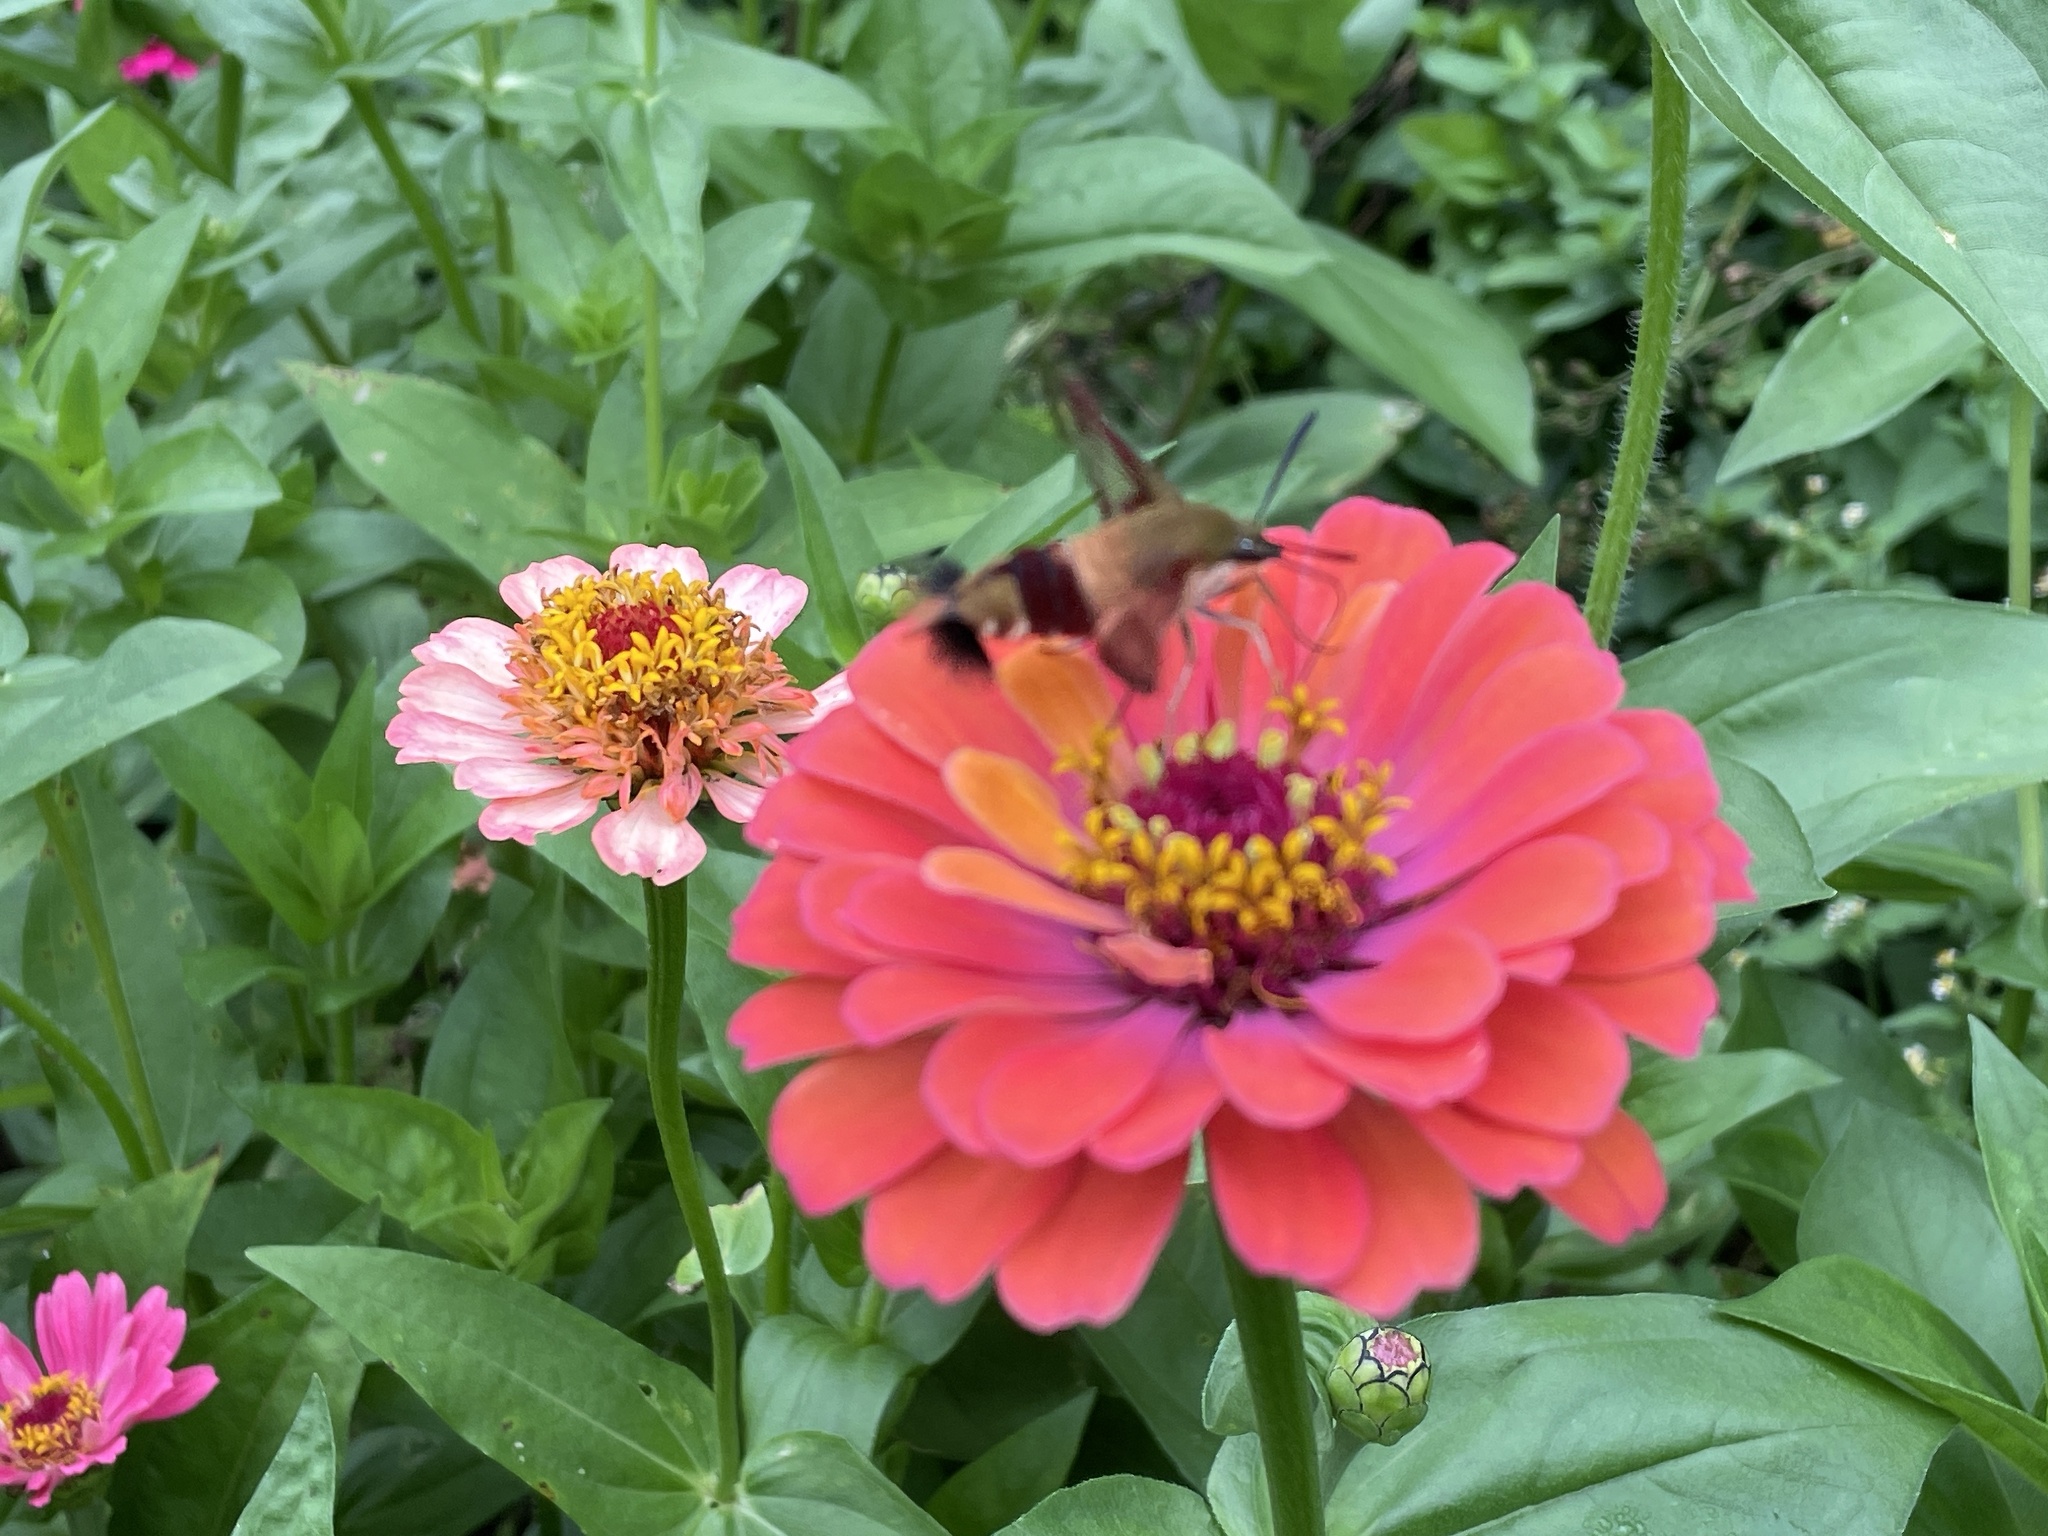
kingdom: Animalia
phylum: Arthropoda
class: Insecta
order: Lepidoptera
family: Sphingidae
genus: Hemaris
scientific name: Hemaris thysbe
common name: Common clear-wing
